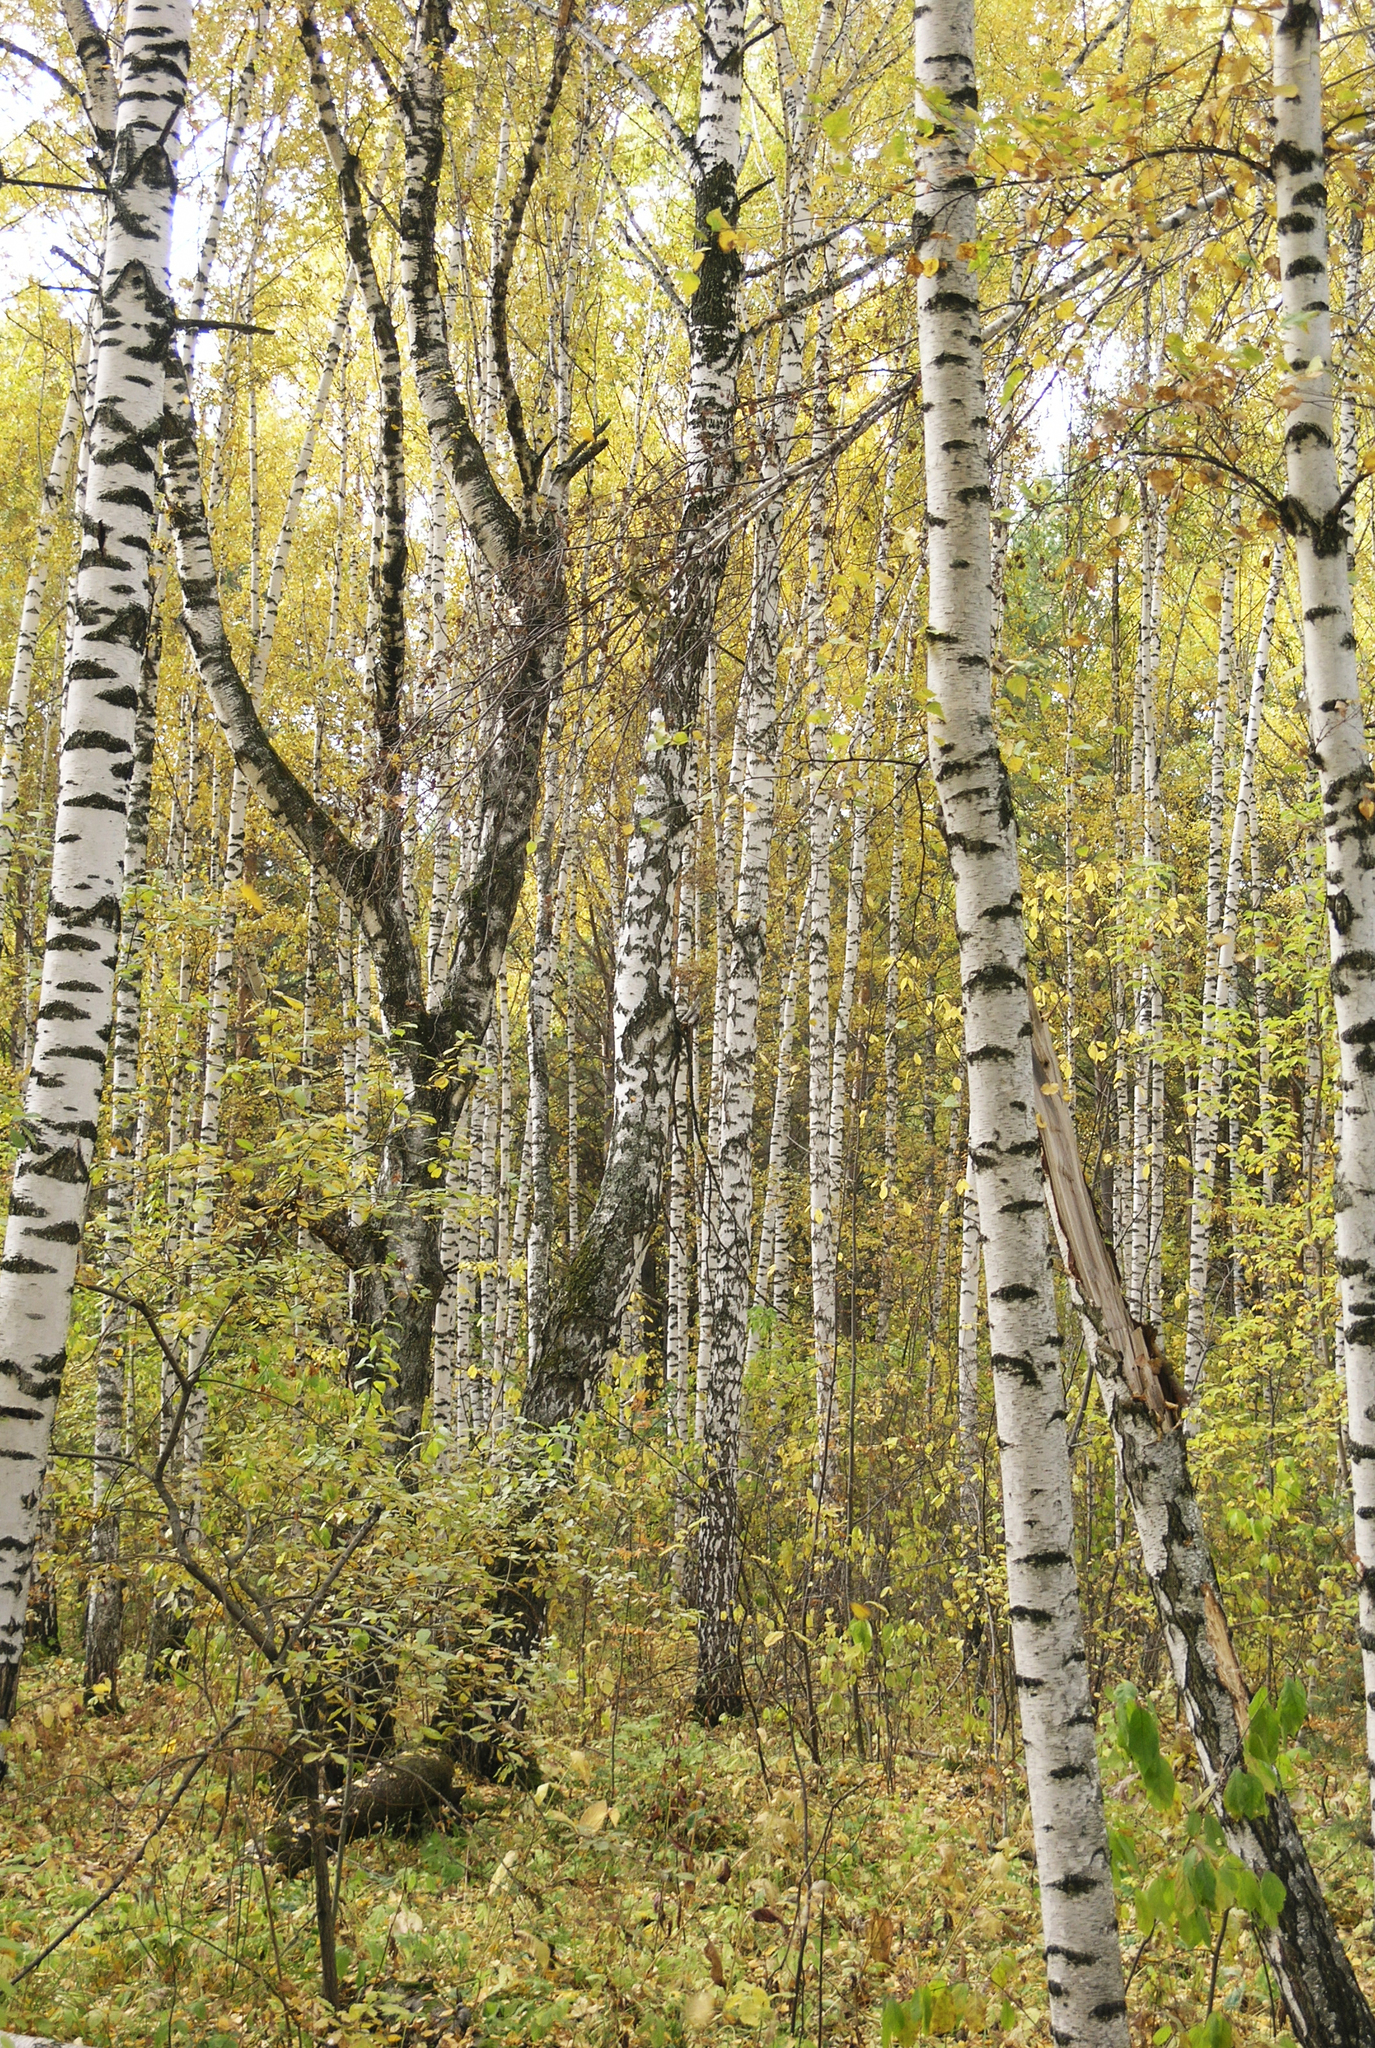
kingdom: Plantae
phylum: Tracheophyta
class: Magnoliopsida
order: Fagales
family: Betulaceae
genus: Betula
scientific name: Betula pendula
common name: Silver birch
